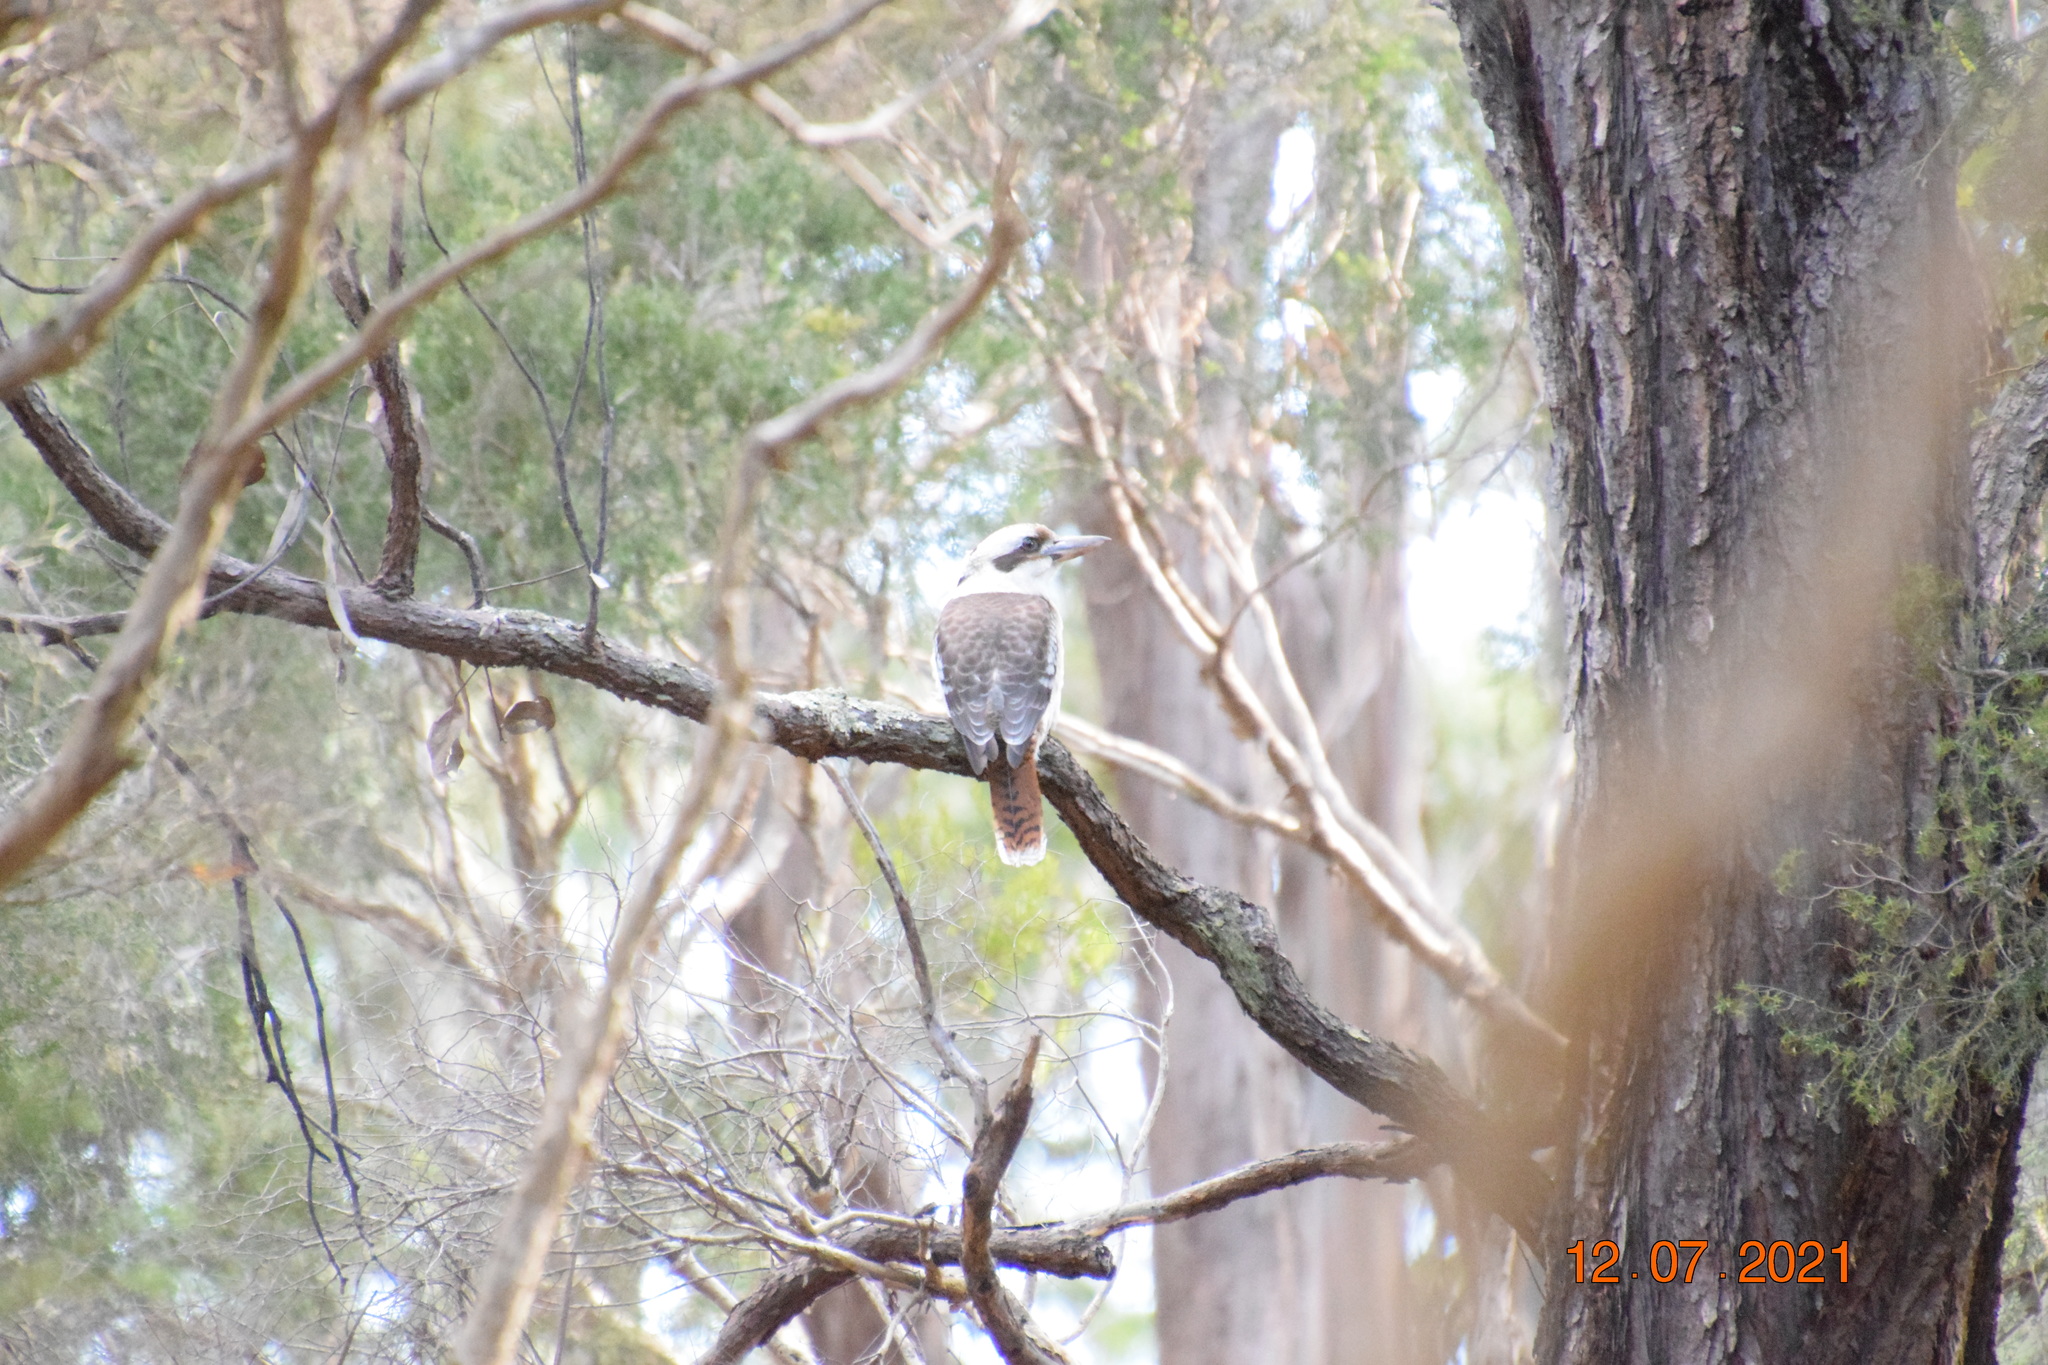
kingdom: Animalia
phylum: Chordata
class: Aves
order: Coraciiformes
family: Alcedinidae
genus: Dacelo
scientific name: Dacelo novaeguineae
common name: Laughing kookaburra
